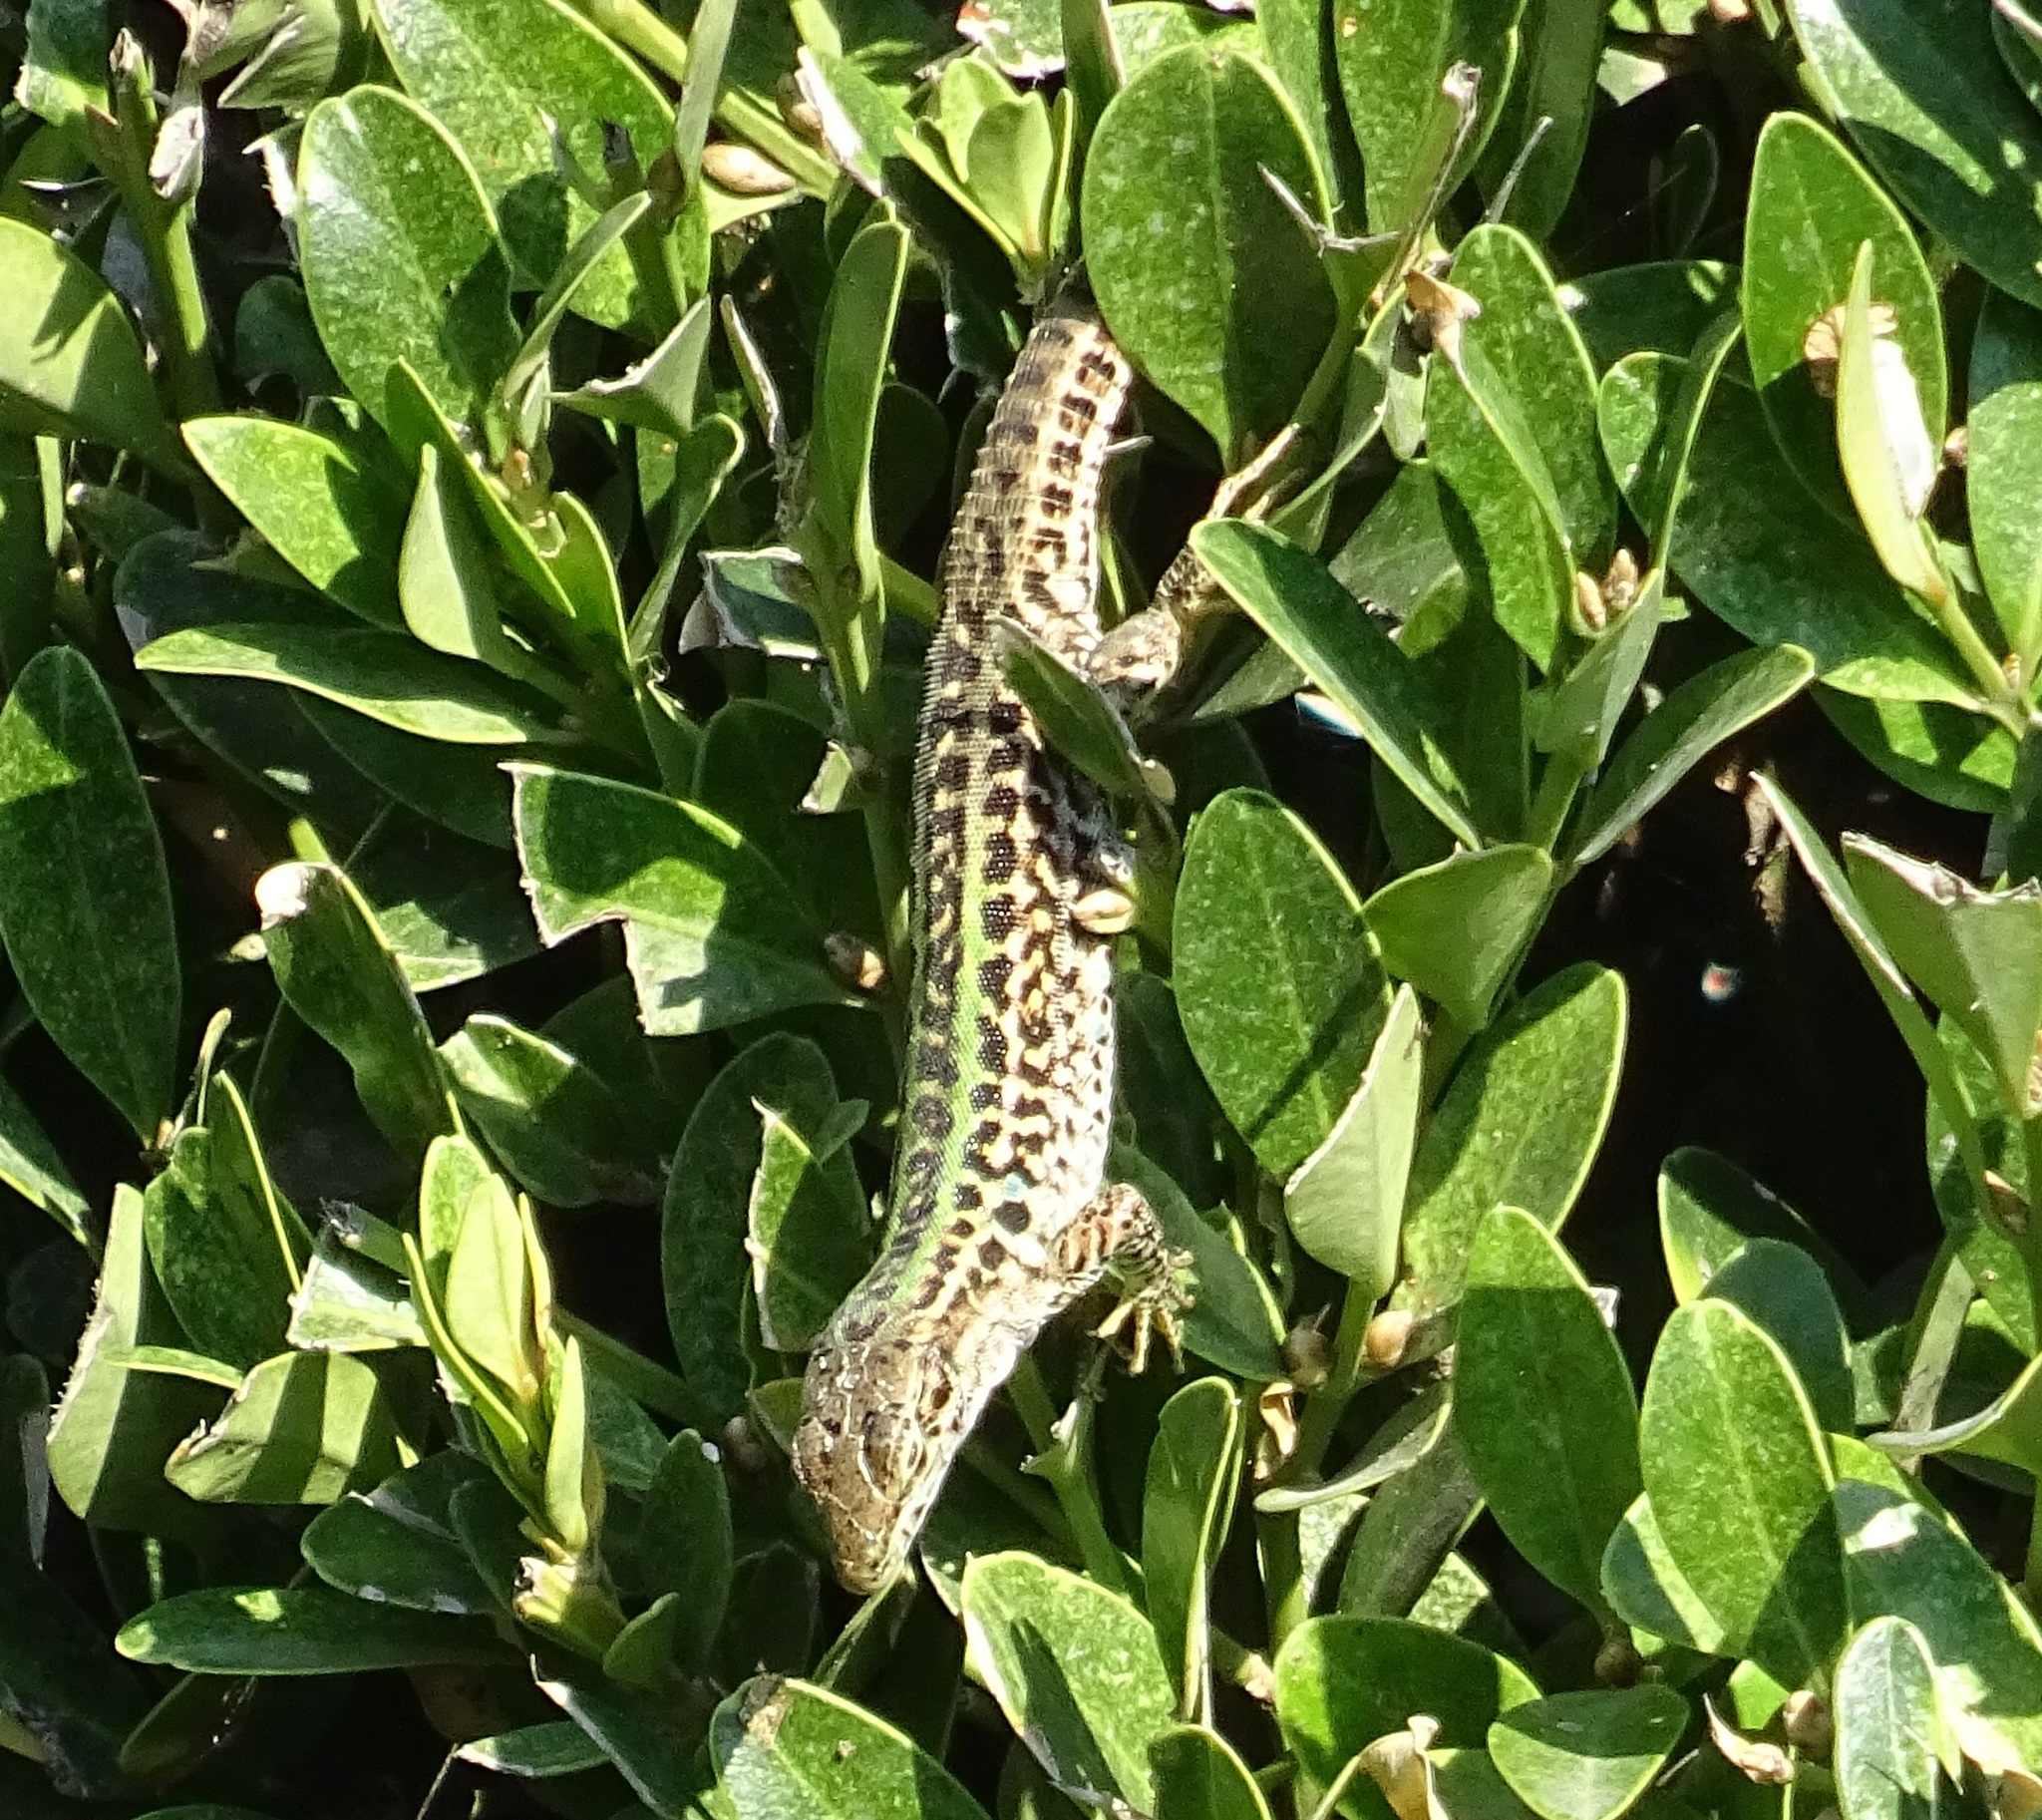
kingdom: Animalia
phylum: Chordata
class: Squamata
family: Lacertidae
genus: Podarcis
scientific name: Podarcis siculus
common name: Italian wall lizard
